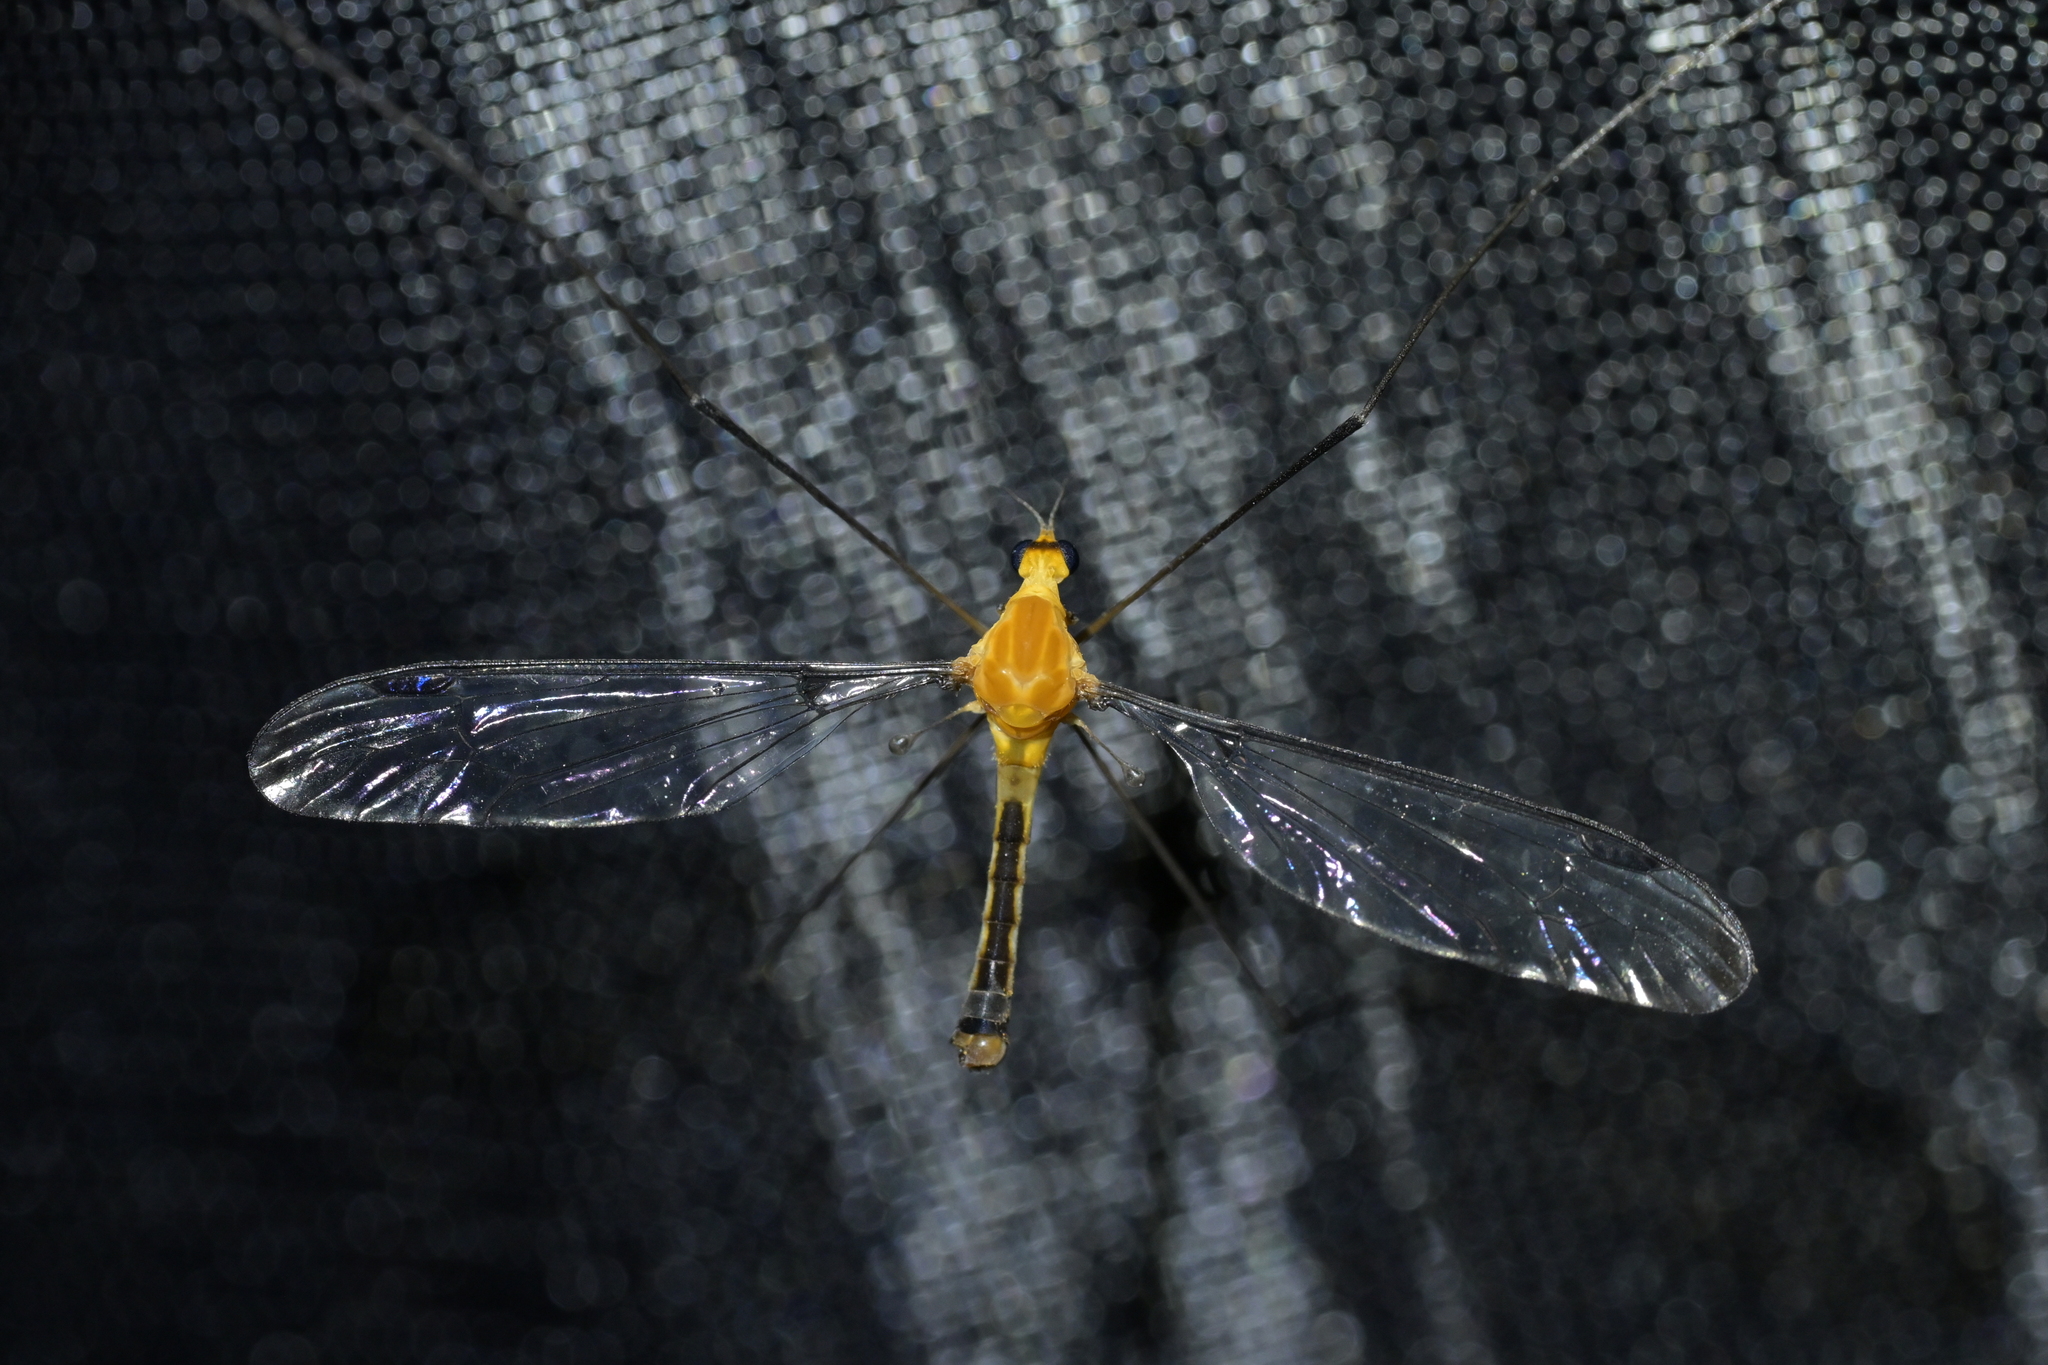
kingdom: Animalia
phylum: Arthropoda
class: Insecta
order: Diptera
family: Tipulidae
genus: Aurotipula
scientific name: Aurotipula
